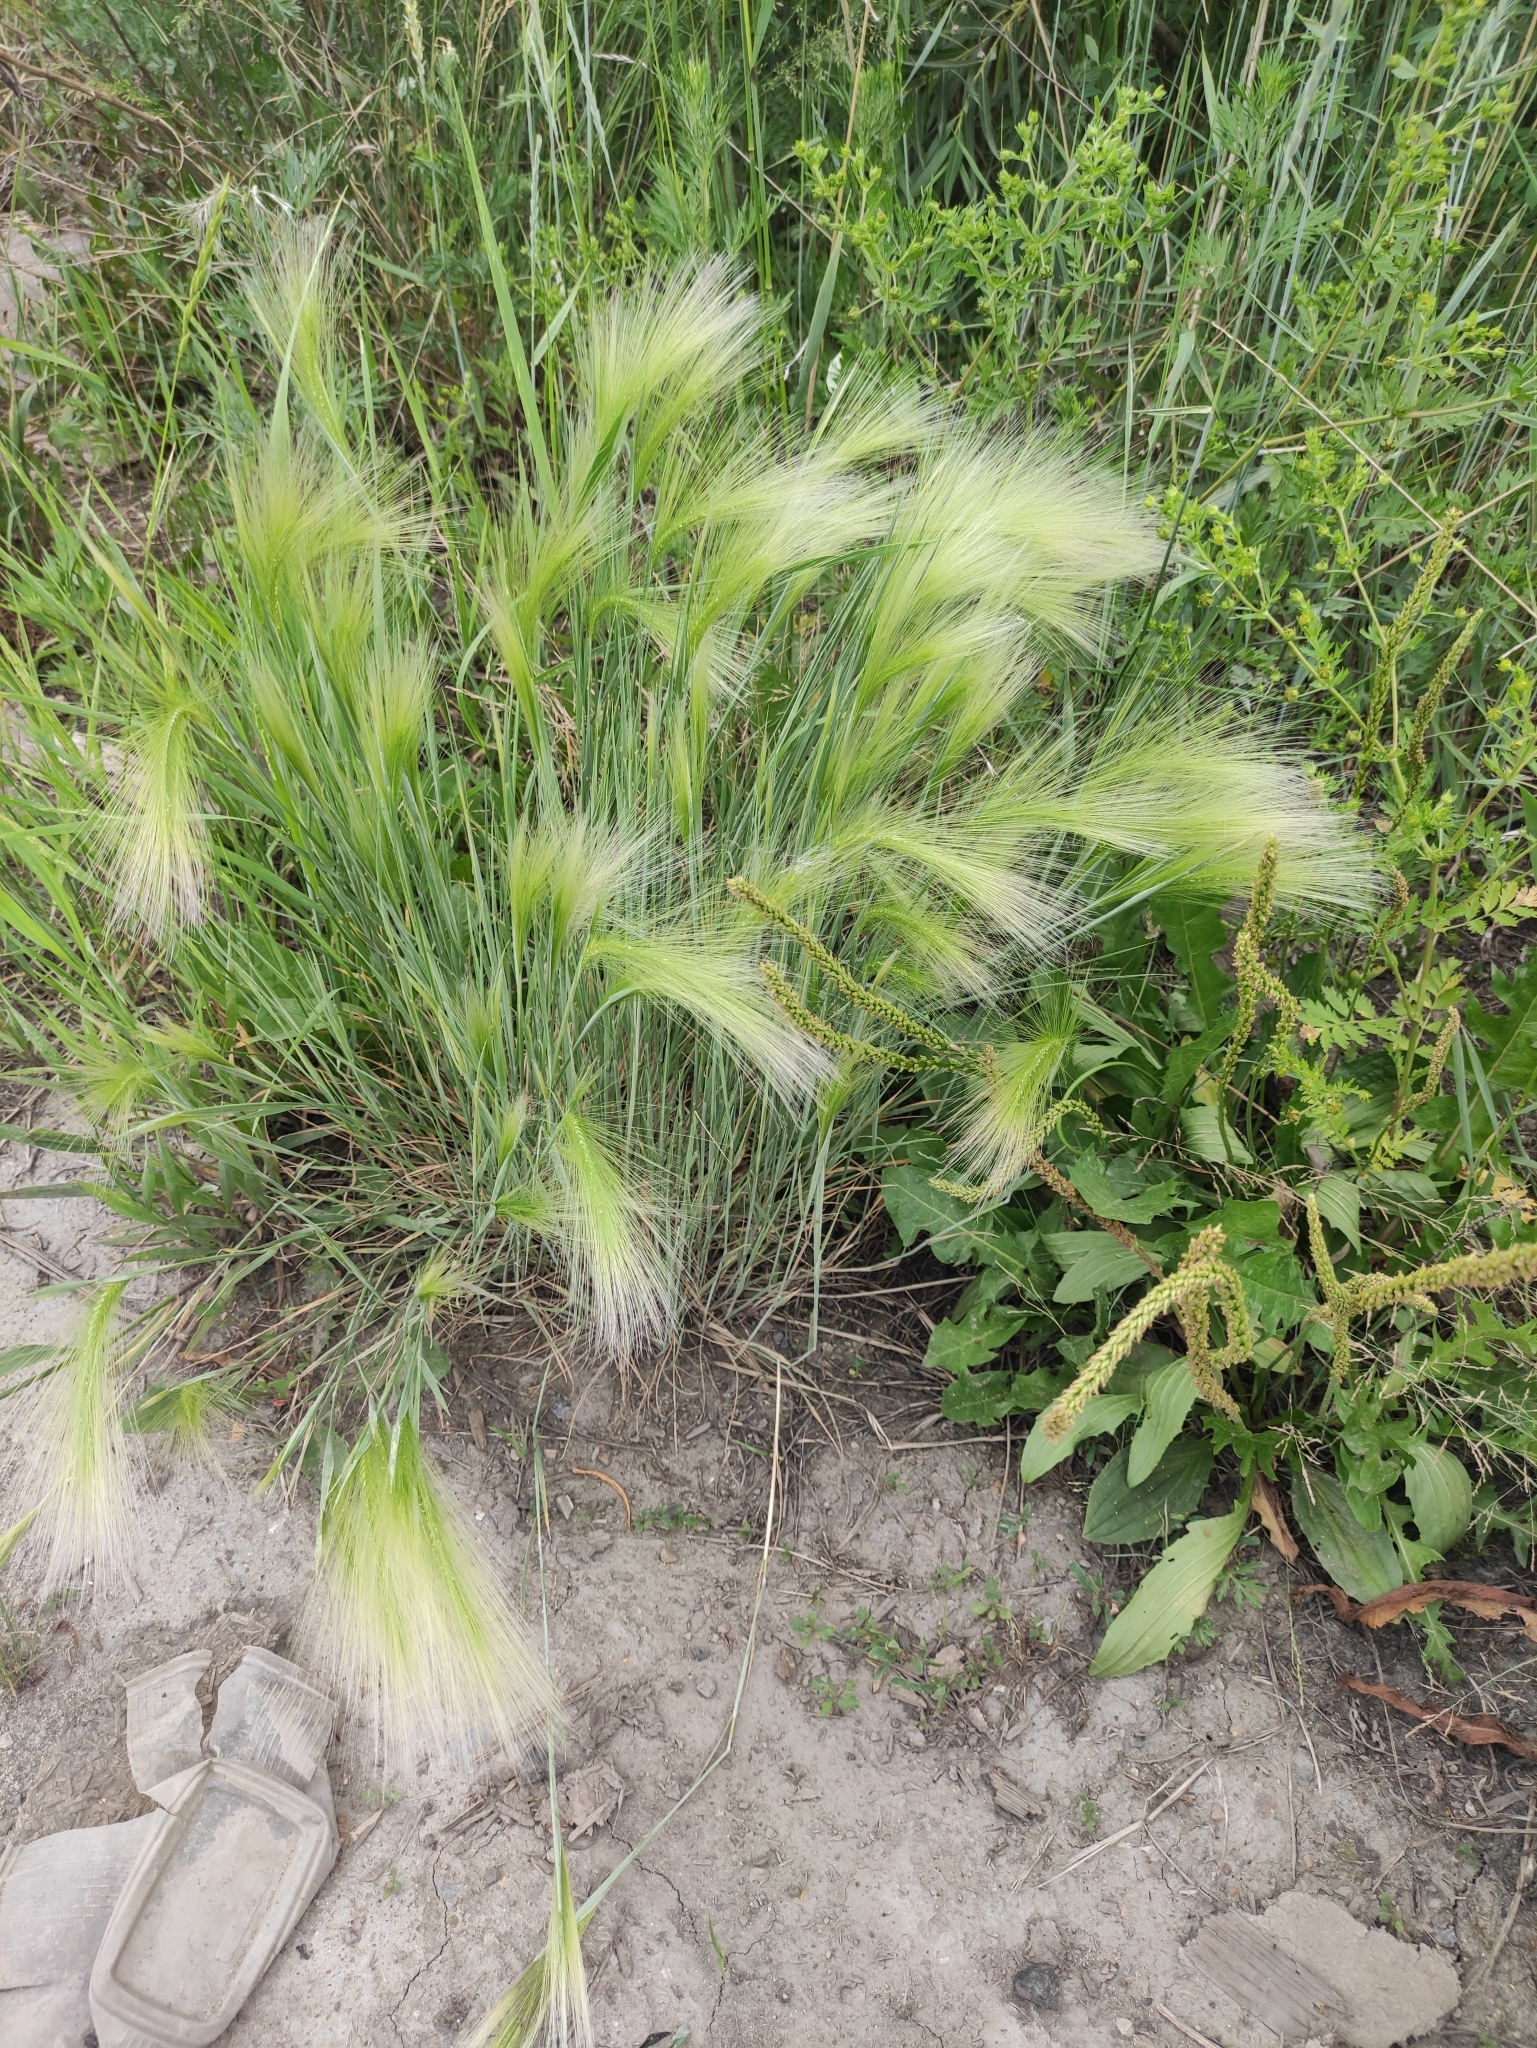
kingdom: Plantae
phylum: Tracheophyta
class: Liliopsida
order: Poales
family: Poaceae
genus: Hordeum
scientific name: Hordeum jubatum
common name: Foxtail barley
